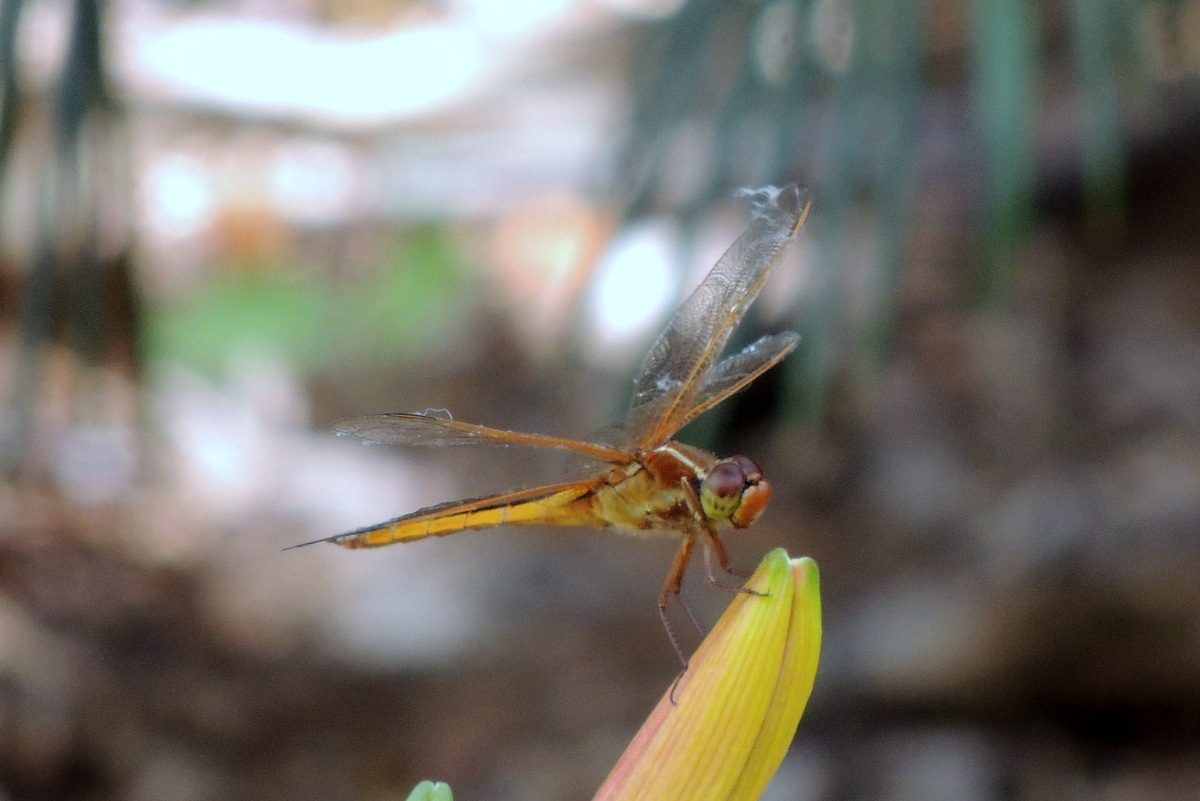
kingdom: Animalia
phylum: Arthropoda
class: Insecta
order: Odonata
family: Libellulidae
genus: Libellula
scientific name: Libellula needhami
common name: Needham's skimmer
